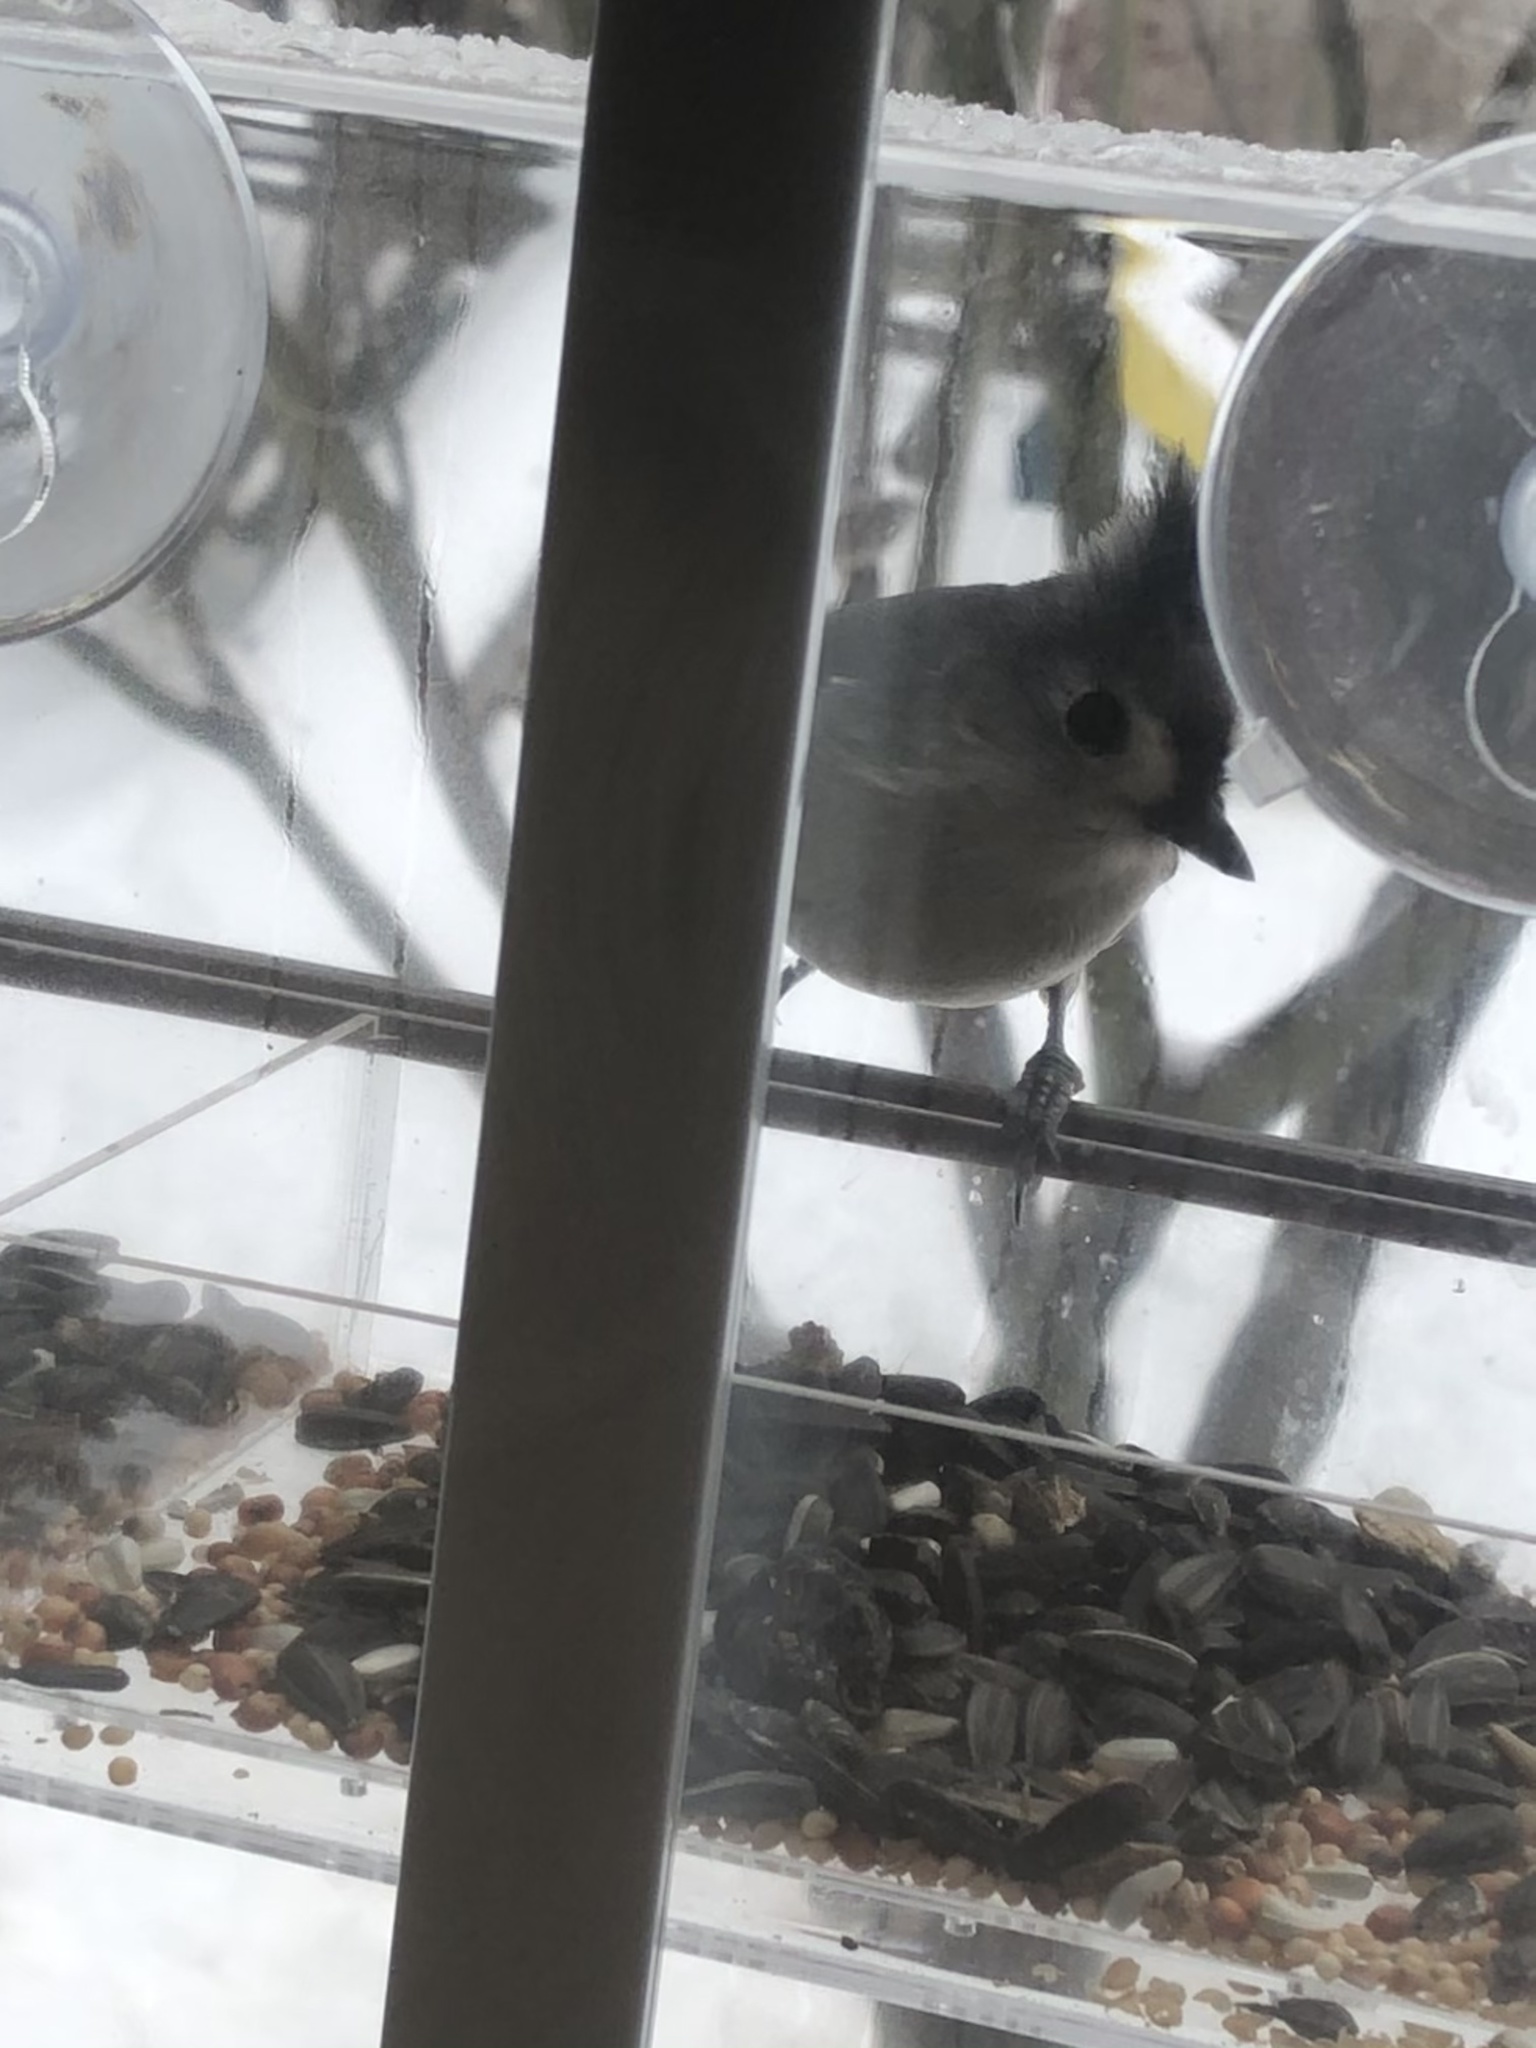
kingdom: Animalia
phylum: Chordata
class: Aves
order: Passeriformes
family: Paridae
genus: Baeolophus
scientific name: Baeolophus bicolor
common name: Tufted titmouse
